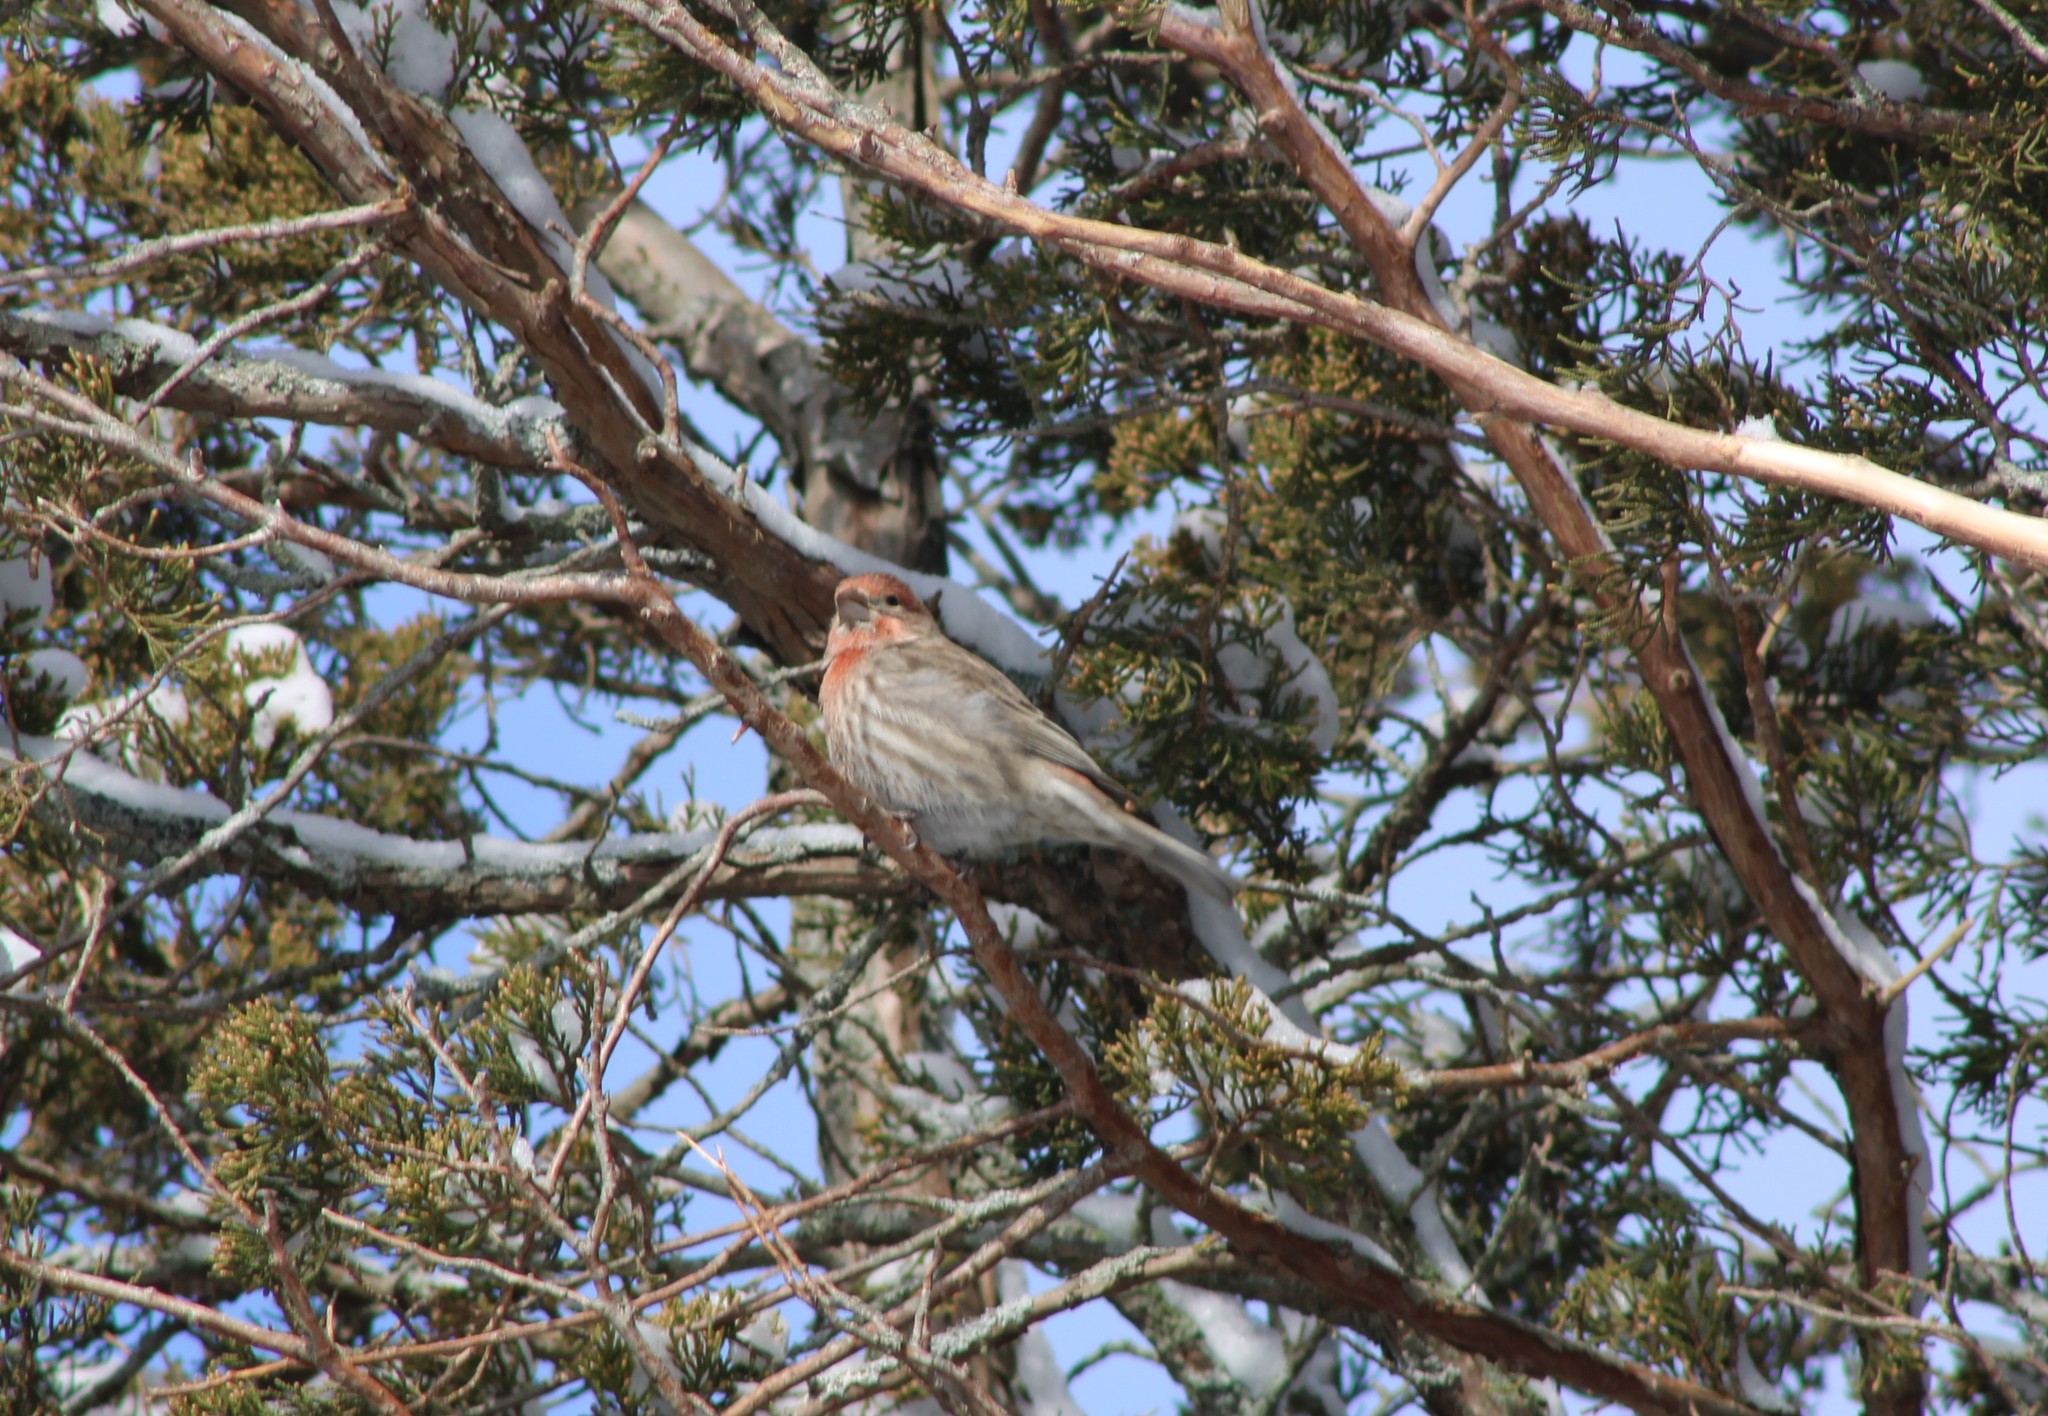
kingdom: Animalia
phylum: Chordata
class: Aves
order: Passeriformes
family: Fringillidae
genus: Haemorhous
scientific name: Haemorhous mexicanus
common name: House finch
